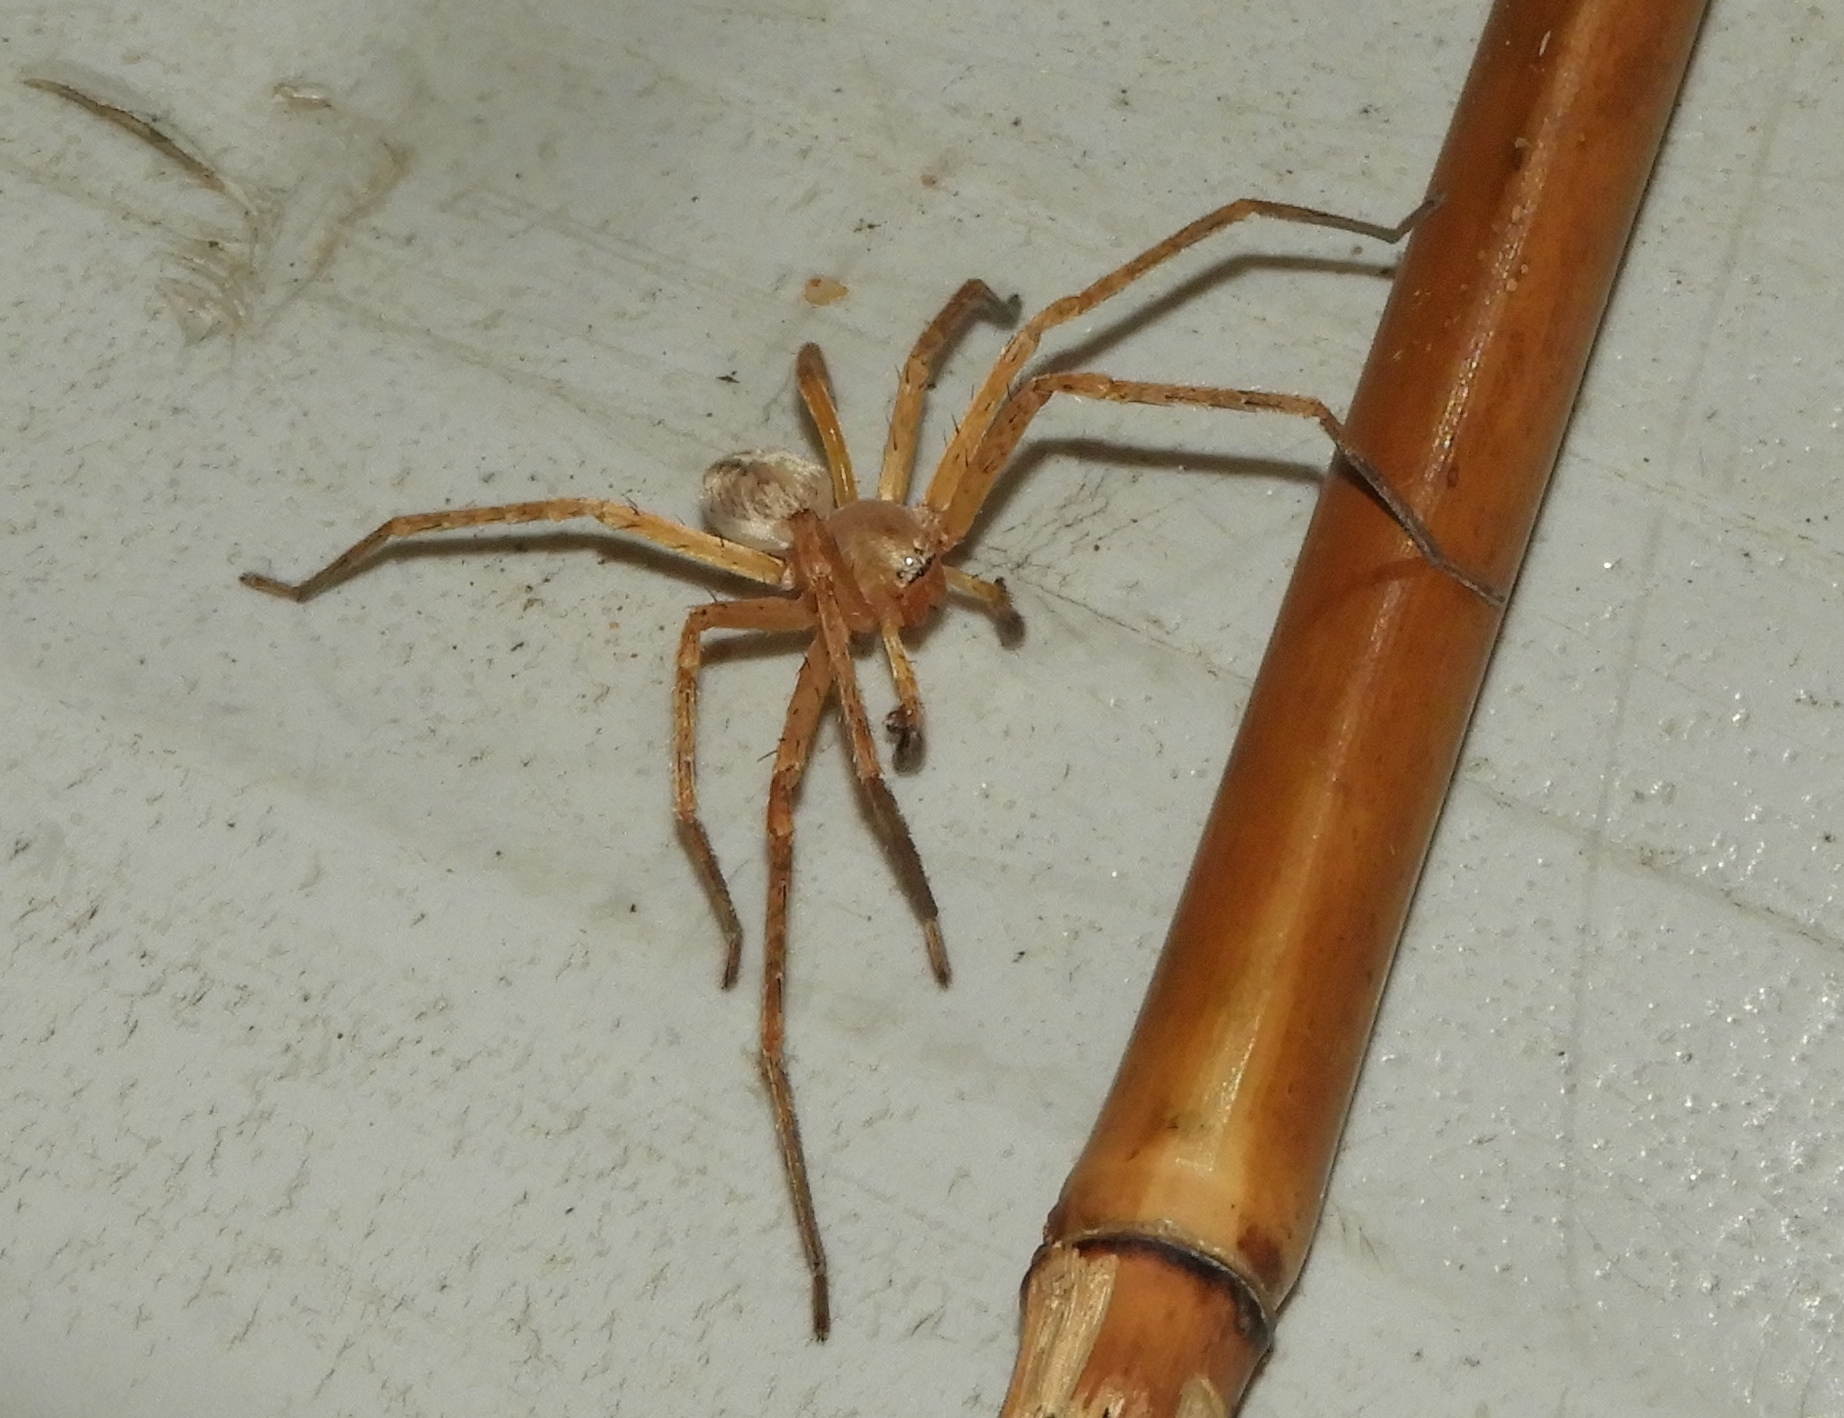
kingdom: Animalia
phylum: Arthropoda
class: Arachnida
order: Araneae
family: Sparassidae
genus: Curicaberis
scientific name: Curicaberis culiacan
